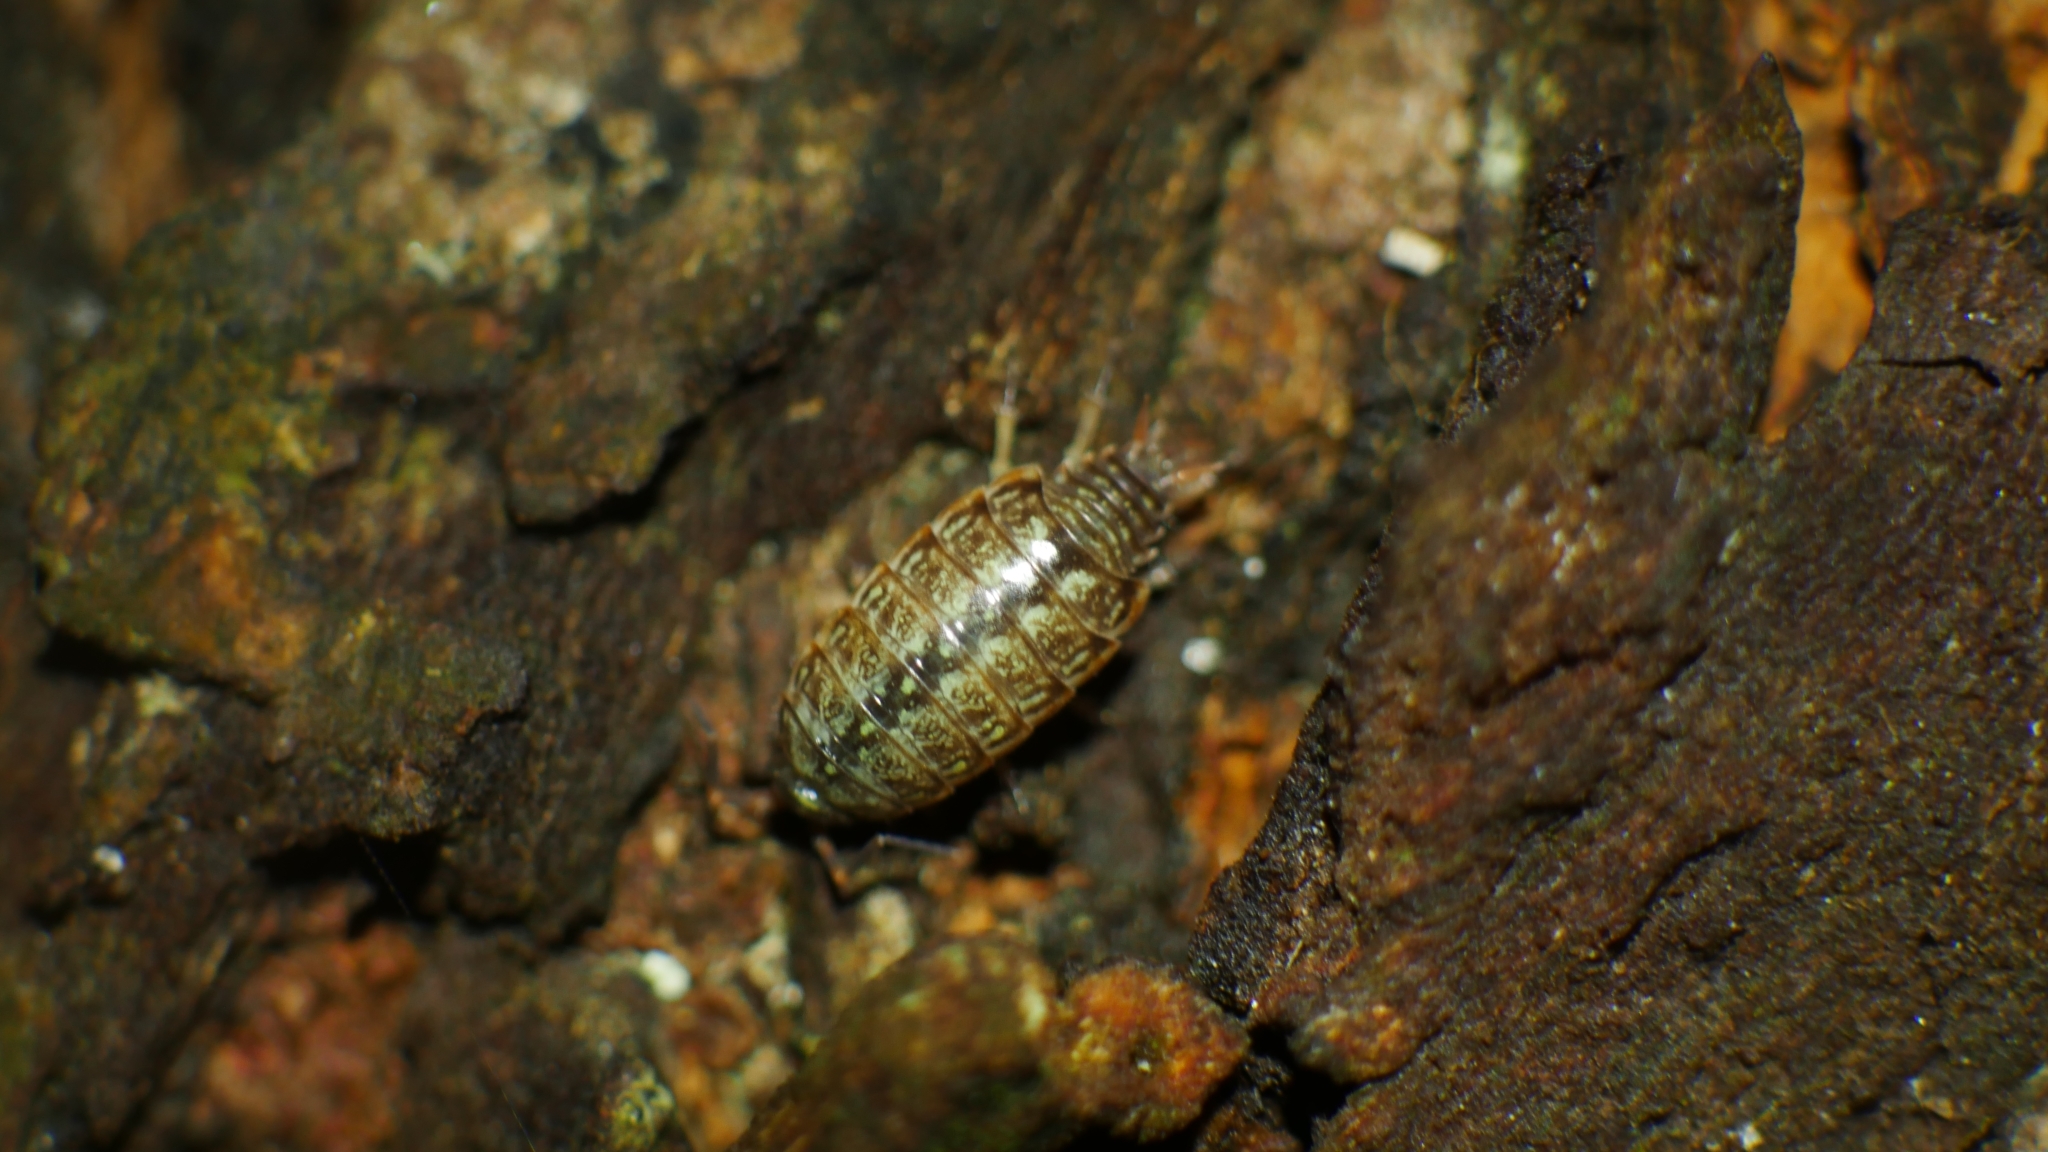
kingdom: Animalia
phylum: Arthropoda
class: Malacostraca
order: Isopoda
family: Philosciidae
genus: Philoscia
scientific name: Philoscia muscorum
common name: Common striped woodlouse
